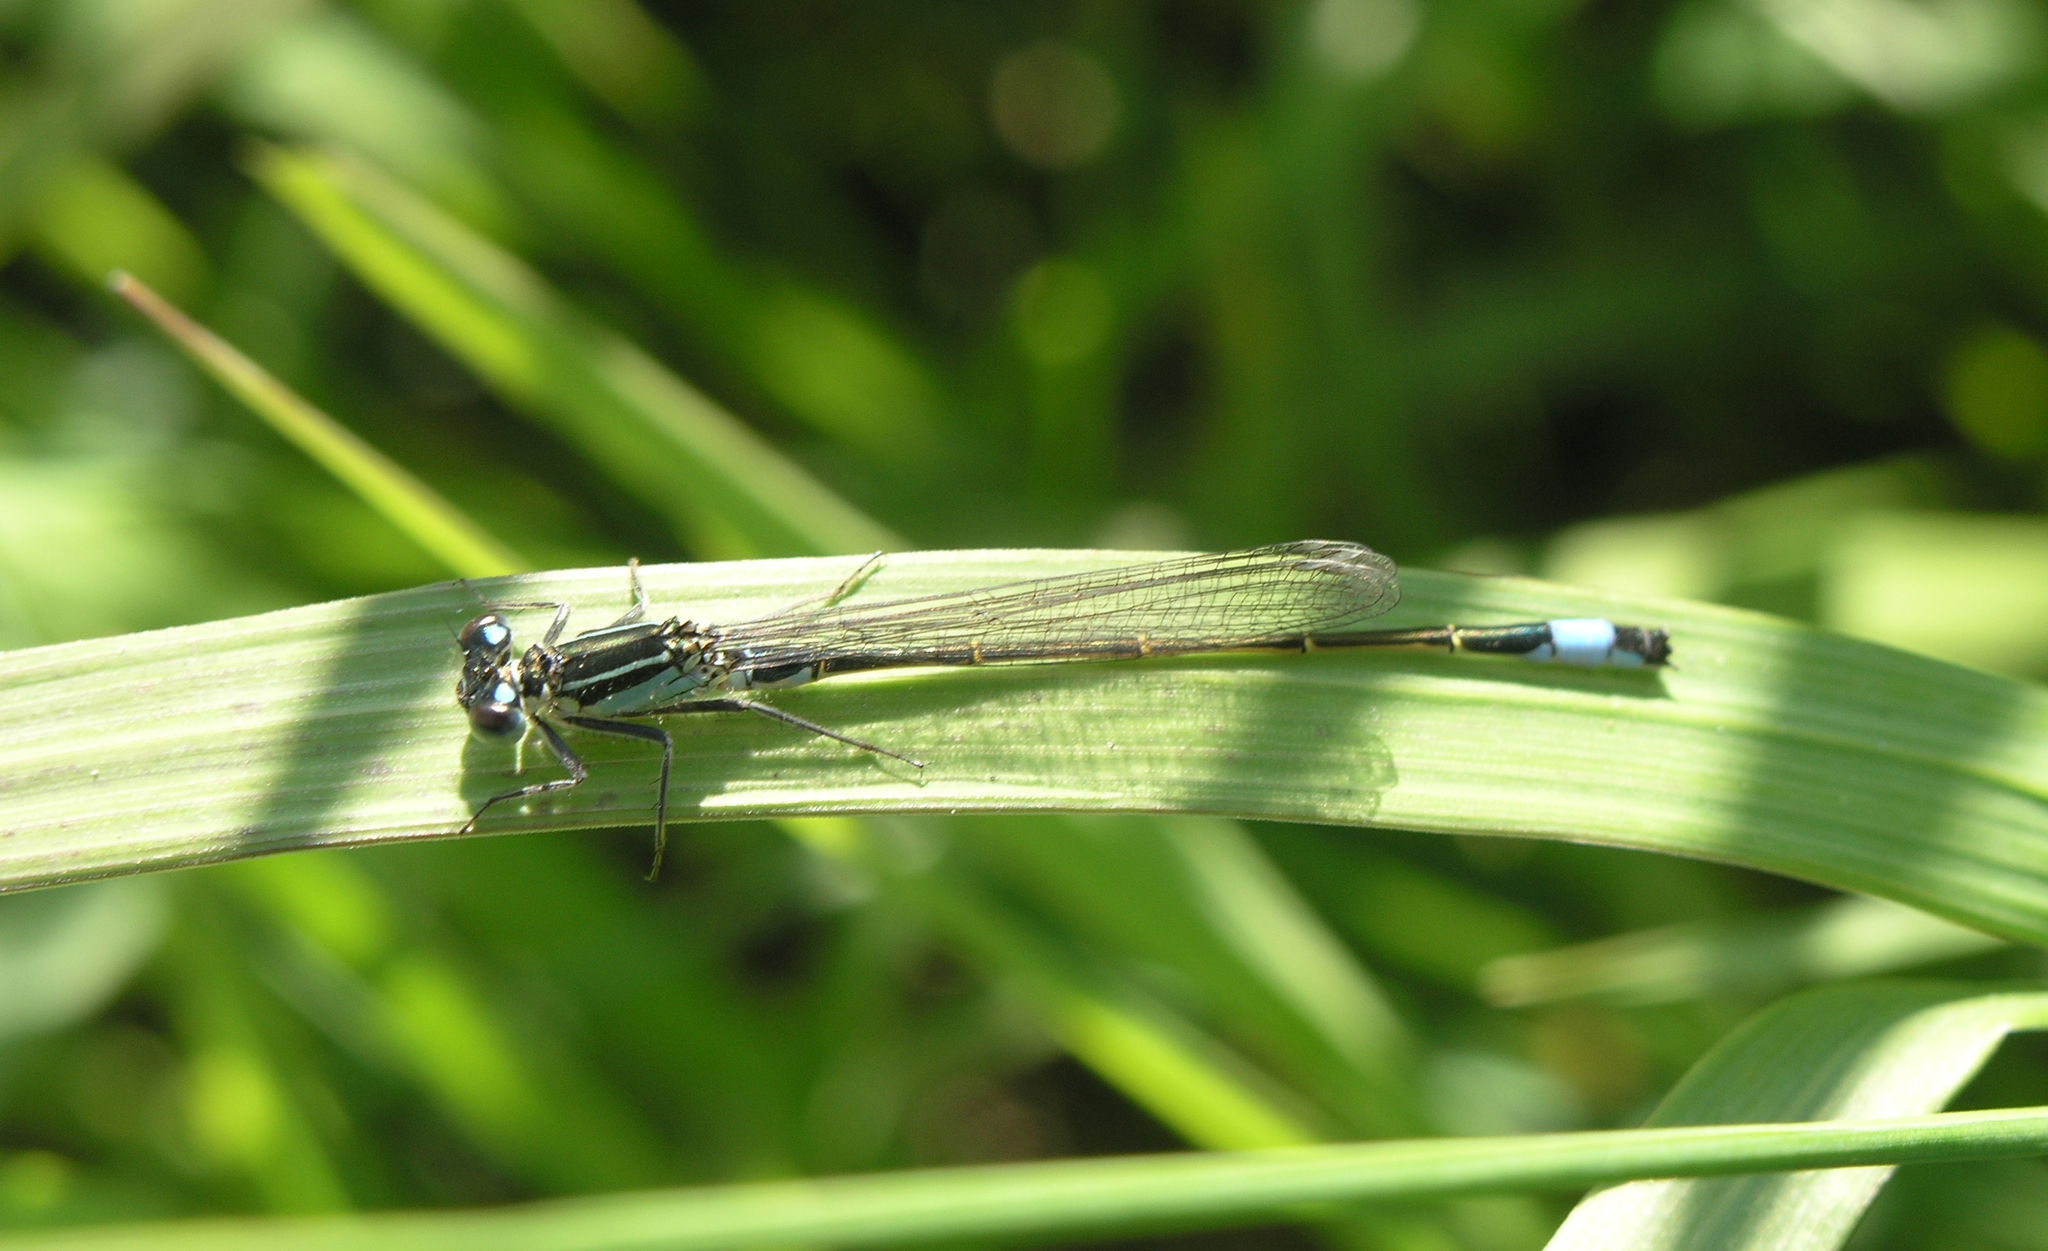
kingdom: Animalia
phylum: Arthropoda
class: Insecta
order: Odonata
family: Coenagrionidae
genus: Ischnura
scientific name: Ischnura elegans
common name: Blue-tailed damselfly
